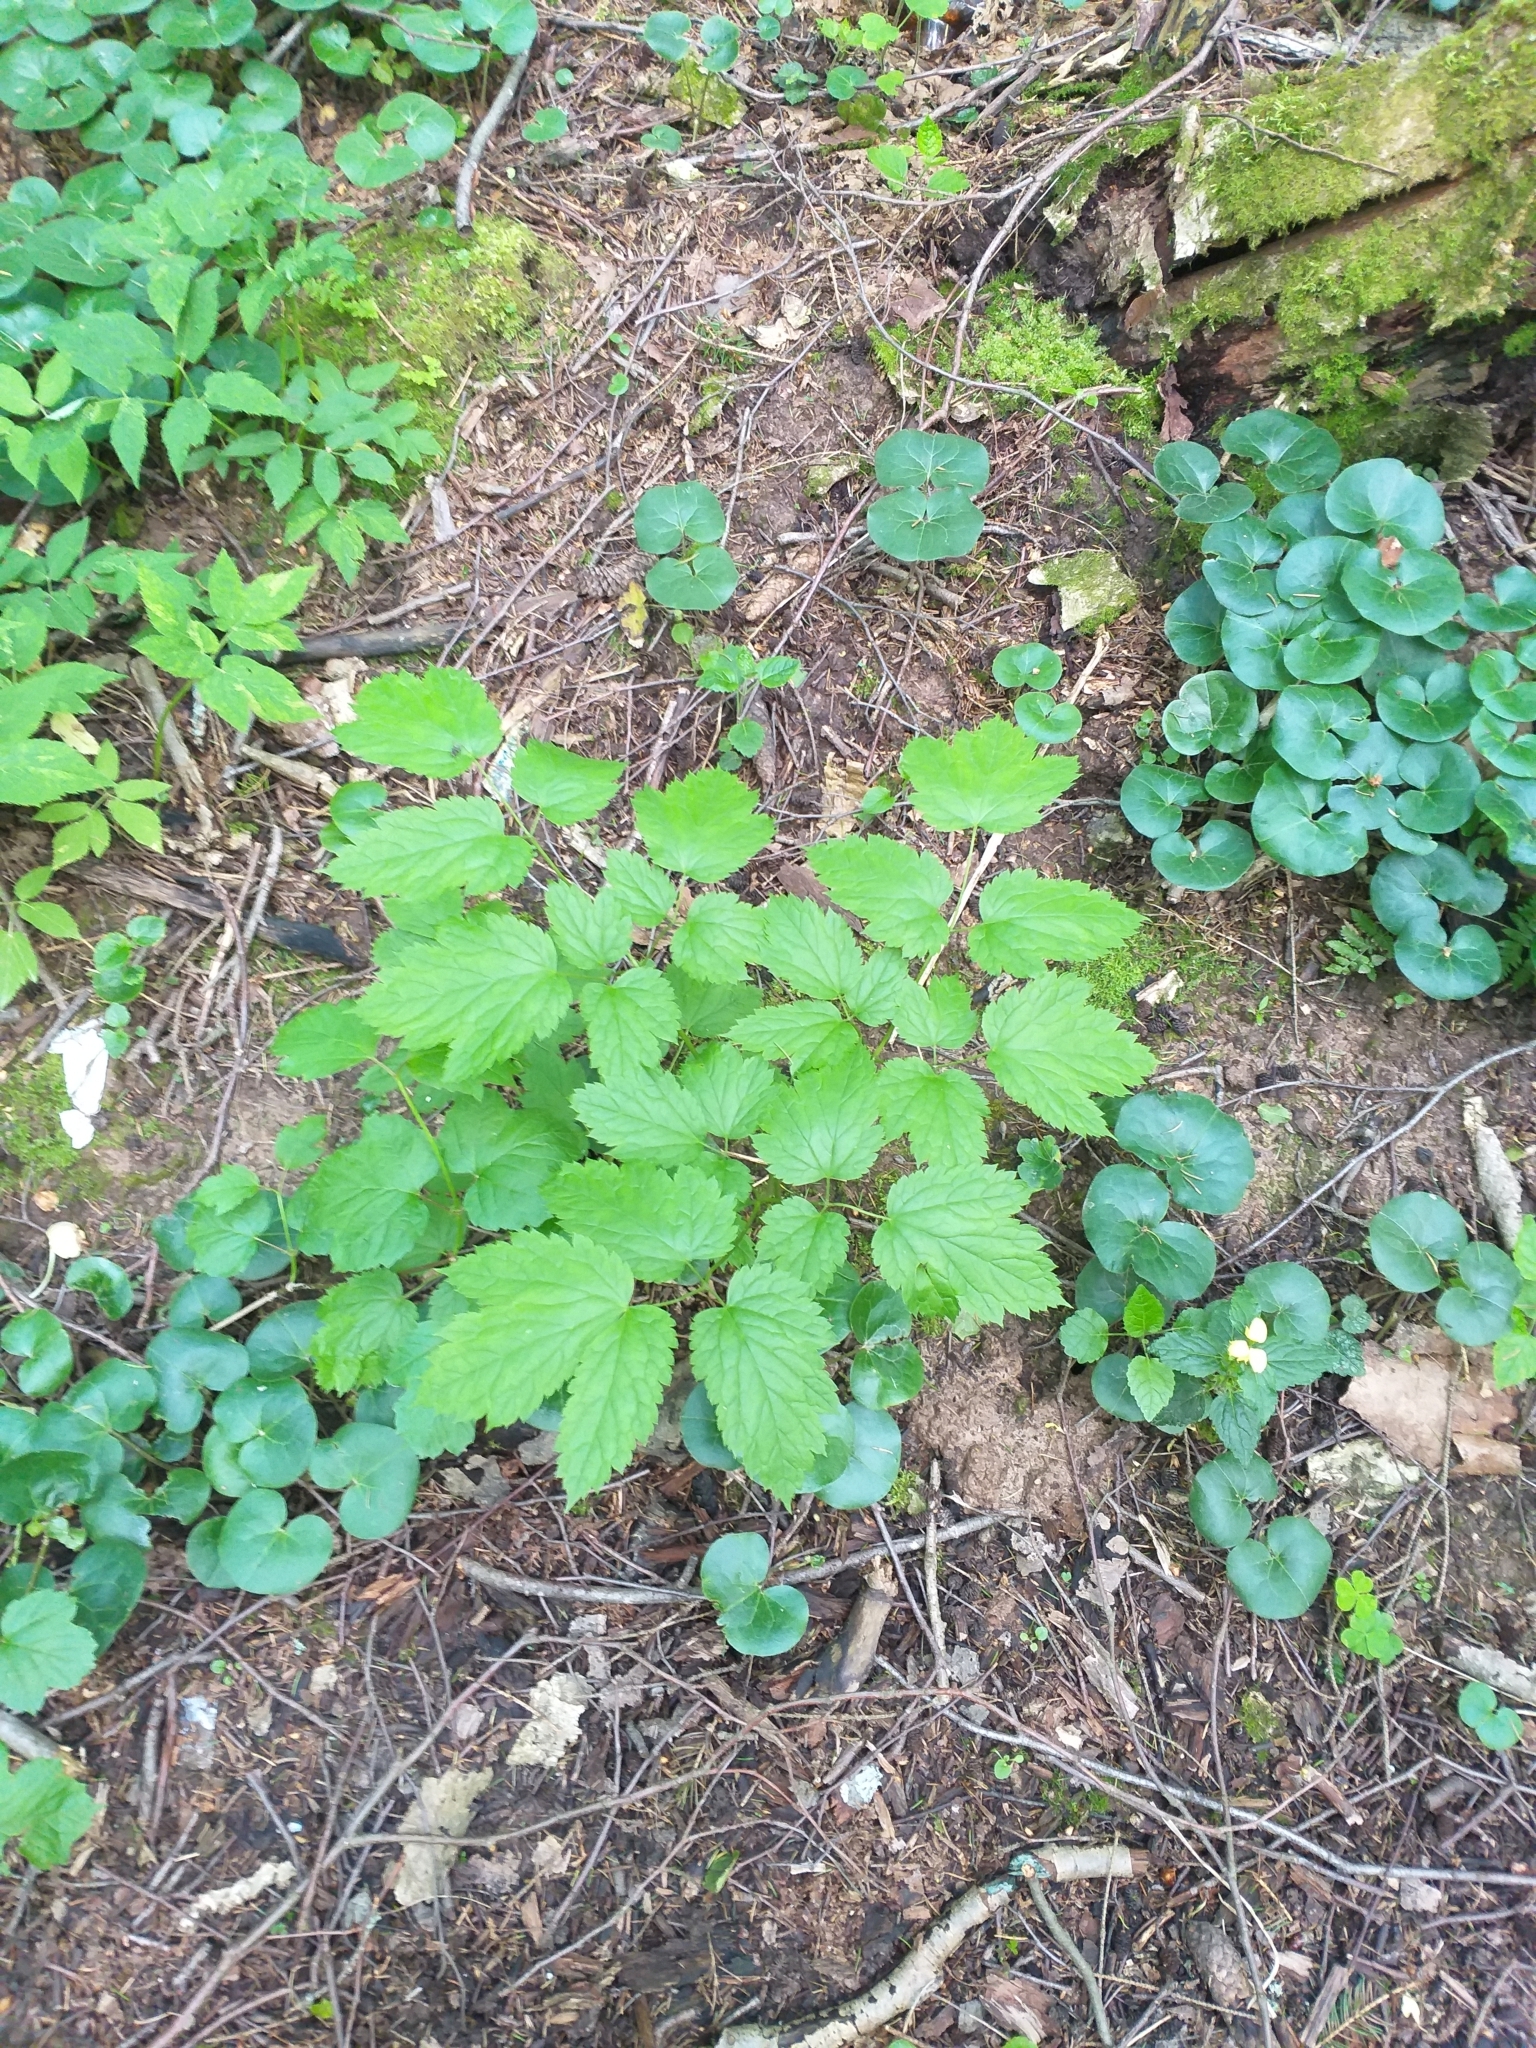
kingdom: Plantae
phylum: Tracheophyta
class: Magnoliopsida
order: Ranunculales
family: Ranunculaceae
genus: Actaea
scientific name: Actaea spicata
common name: Baneberry
